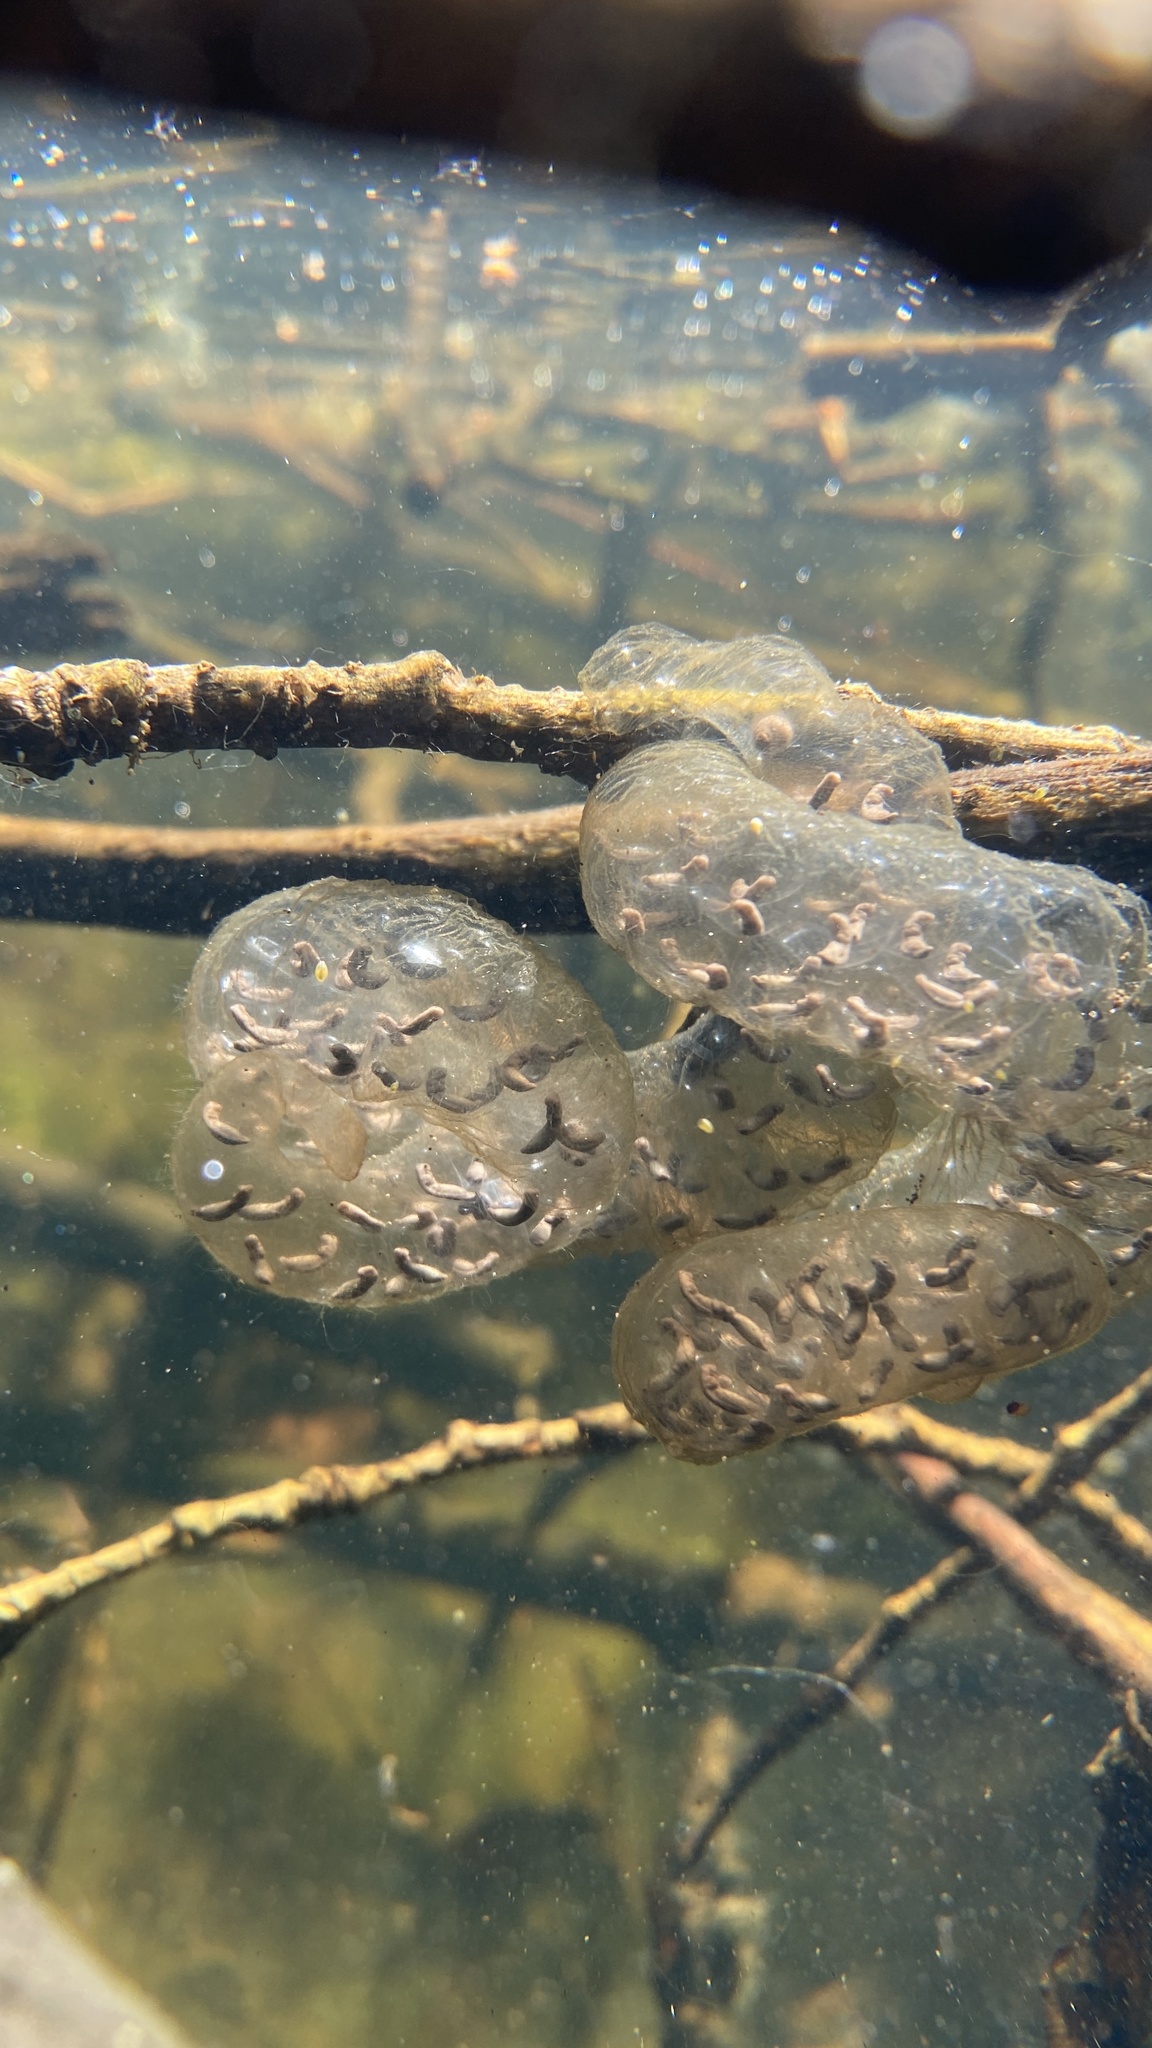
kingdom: Animalia
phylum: Chordata
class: Amphibia
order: Caudata
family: Hynobiidae
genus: Salamandrella
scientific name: Salamandrella keyserlingii
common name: Dybowski's salamander
